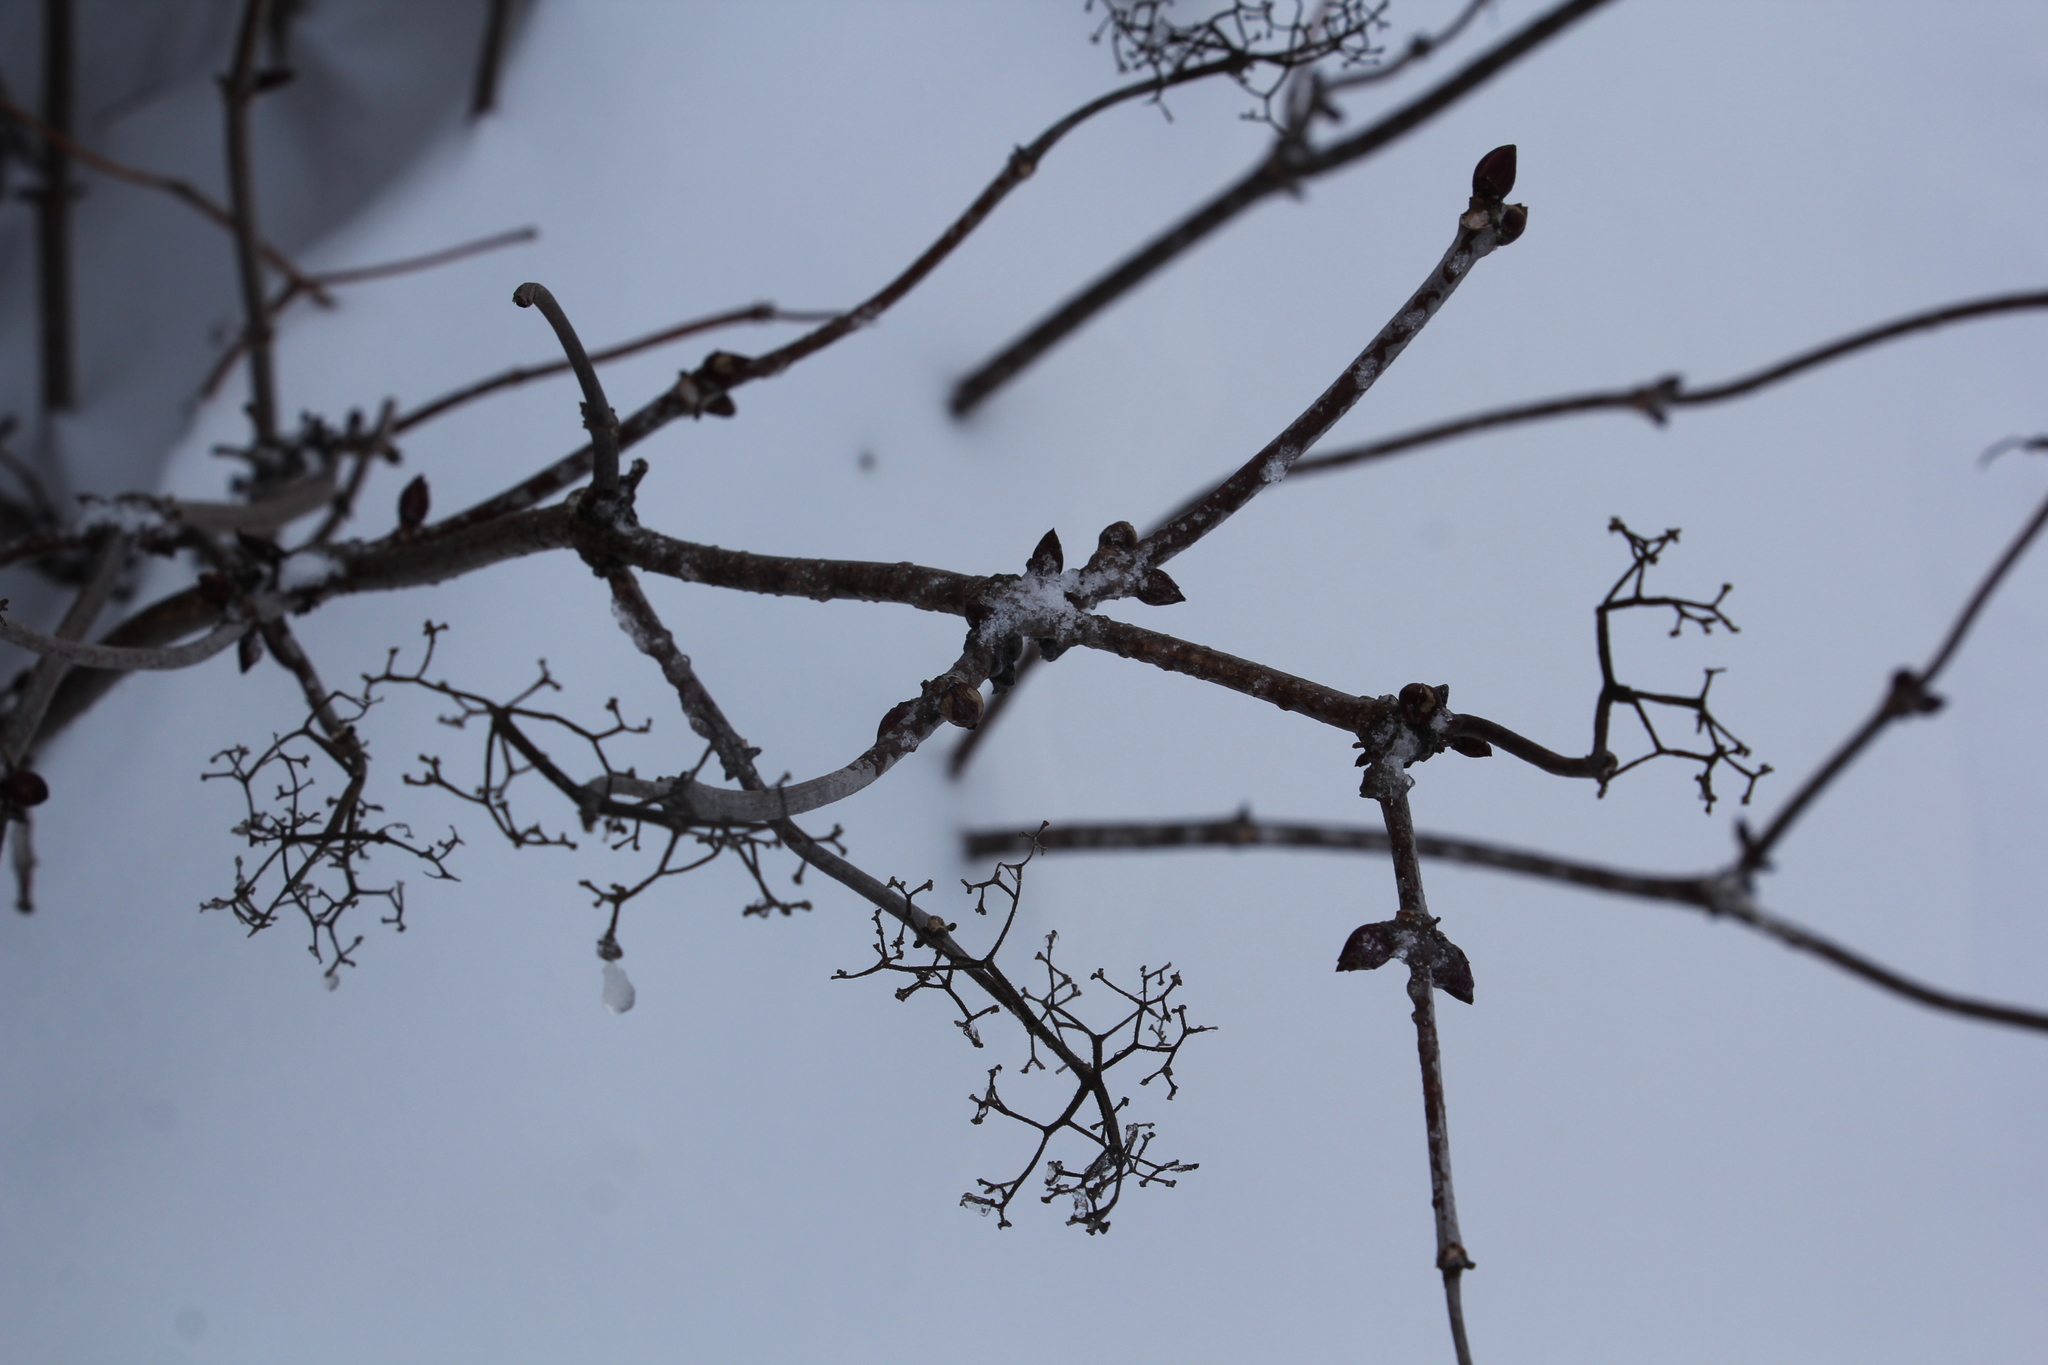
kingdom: Plantae
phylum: Tracheophyta
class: Magnoliopsida
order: Dipsacales
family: Viburnaceae
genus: Sambucus
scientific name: Sambucus sibirica
